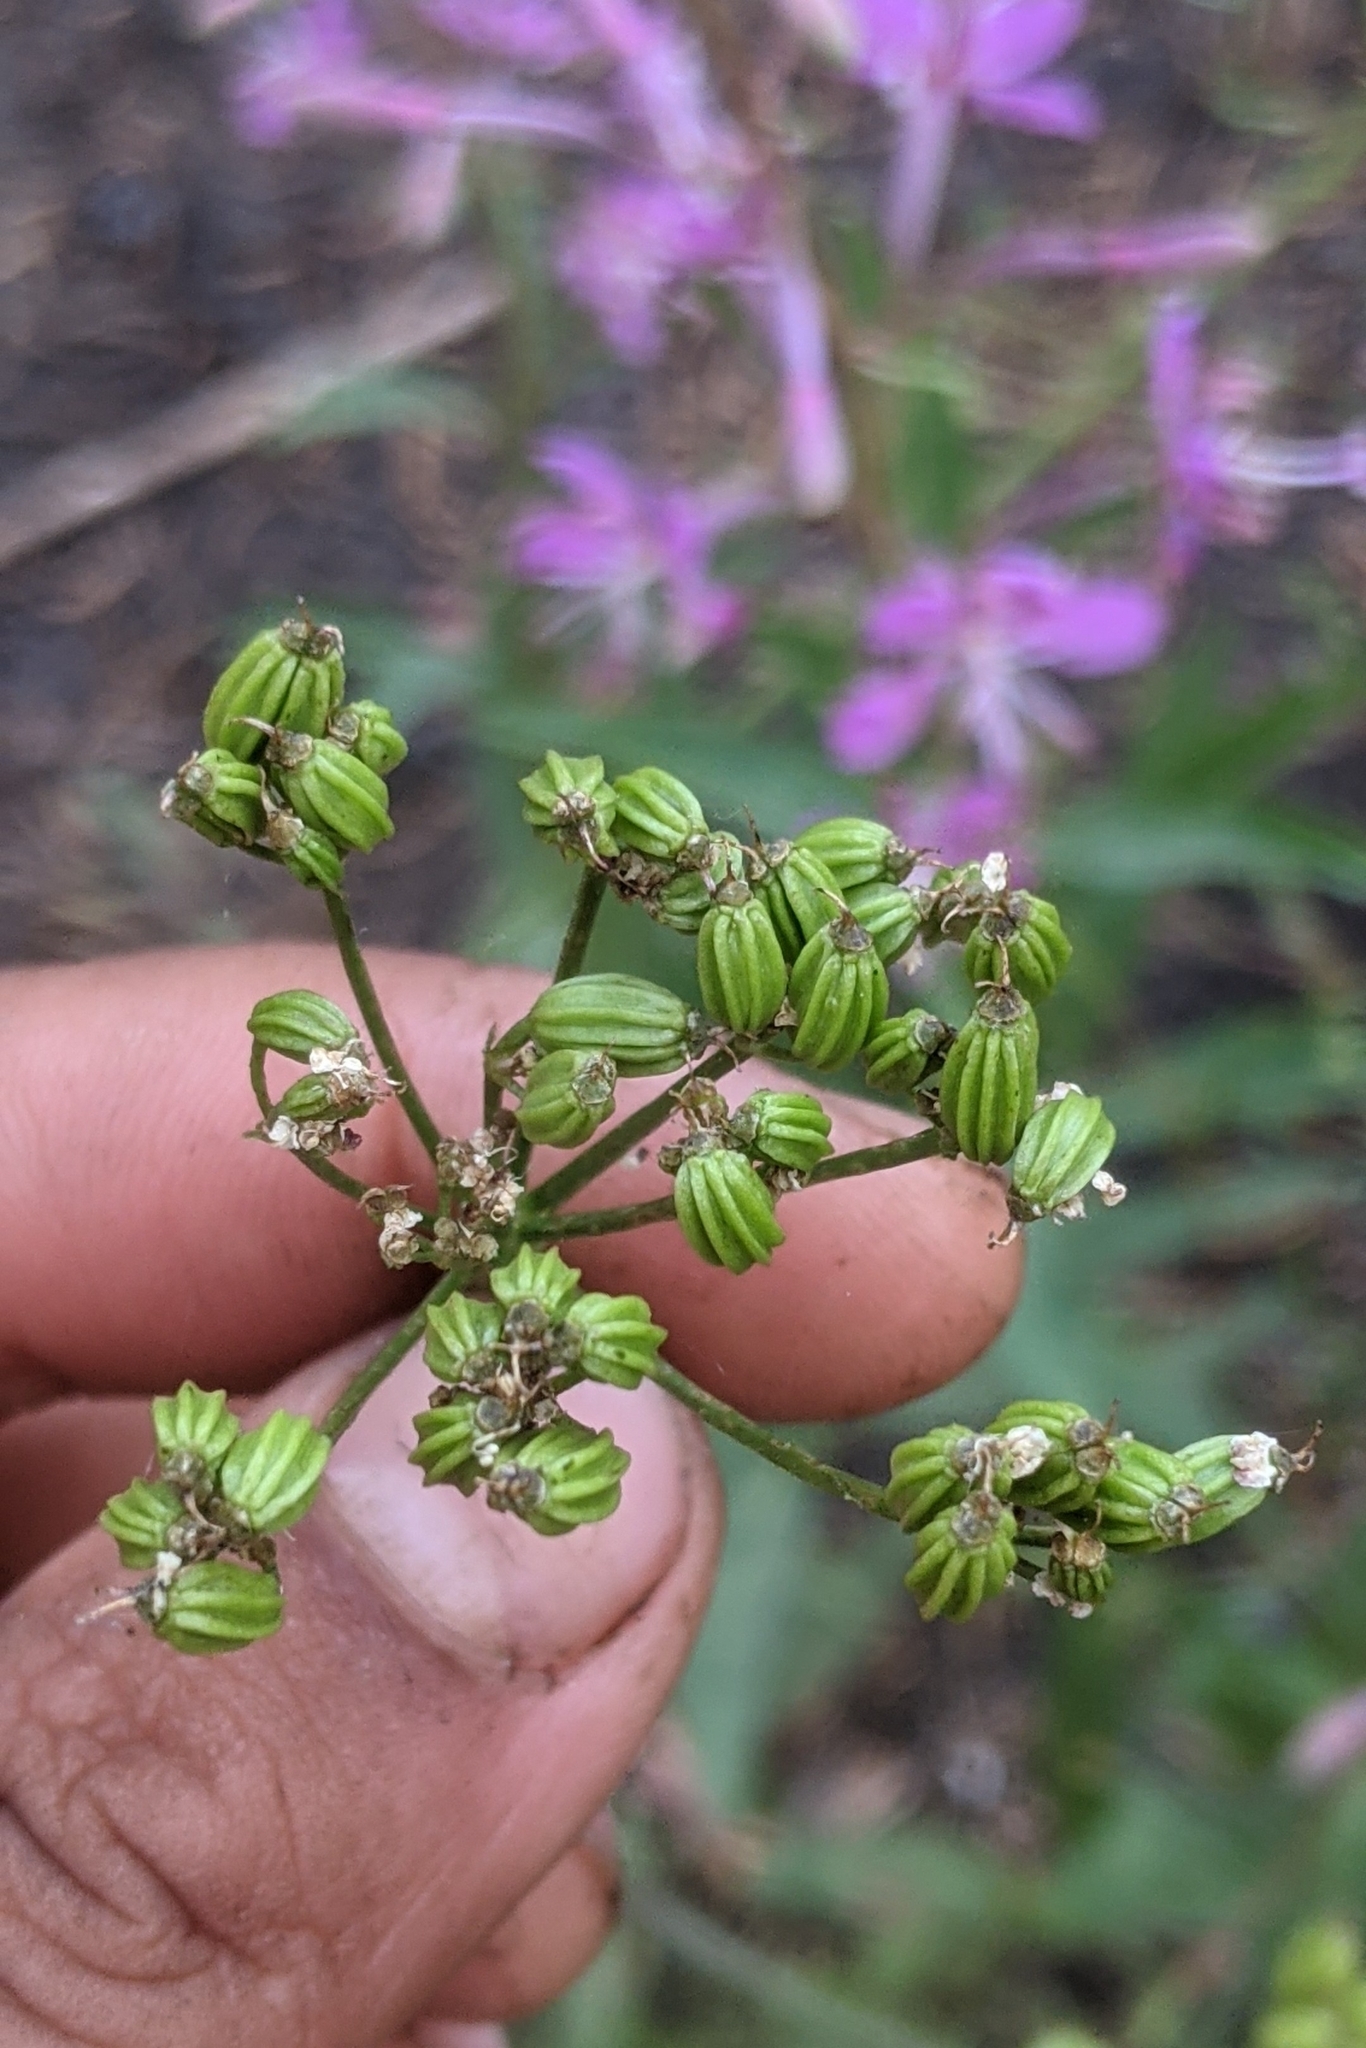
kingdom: Plantae
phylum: Tracheophyta
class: Magnoliopsida
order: Apiales
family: Apiaceae
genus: Angelica
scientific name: Angelica breweri
